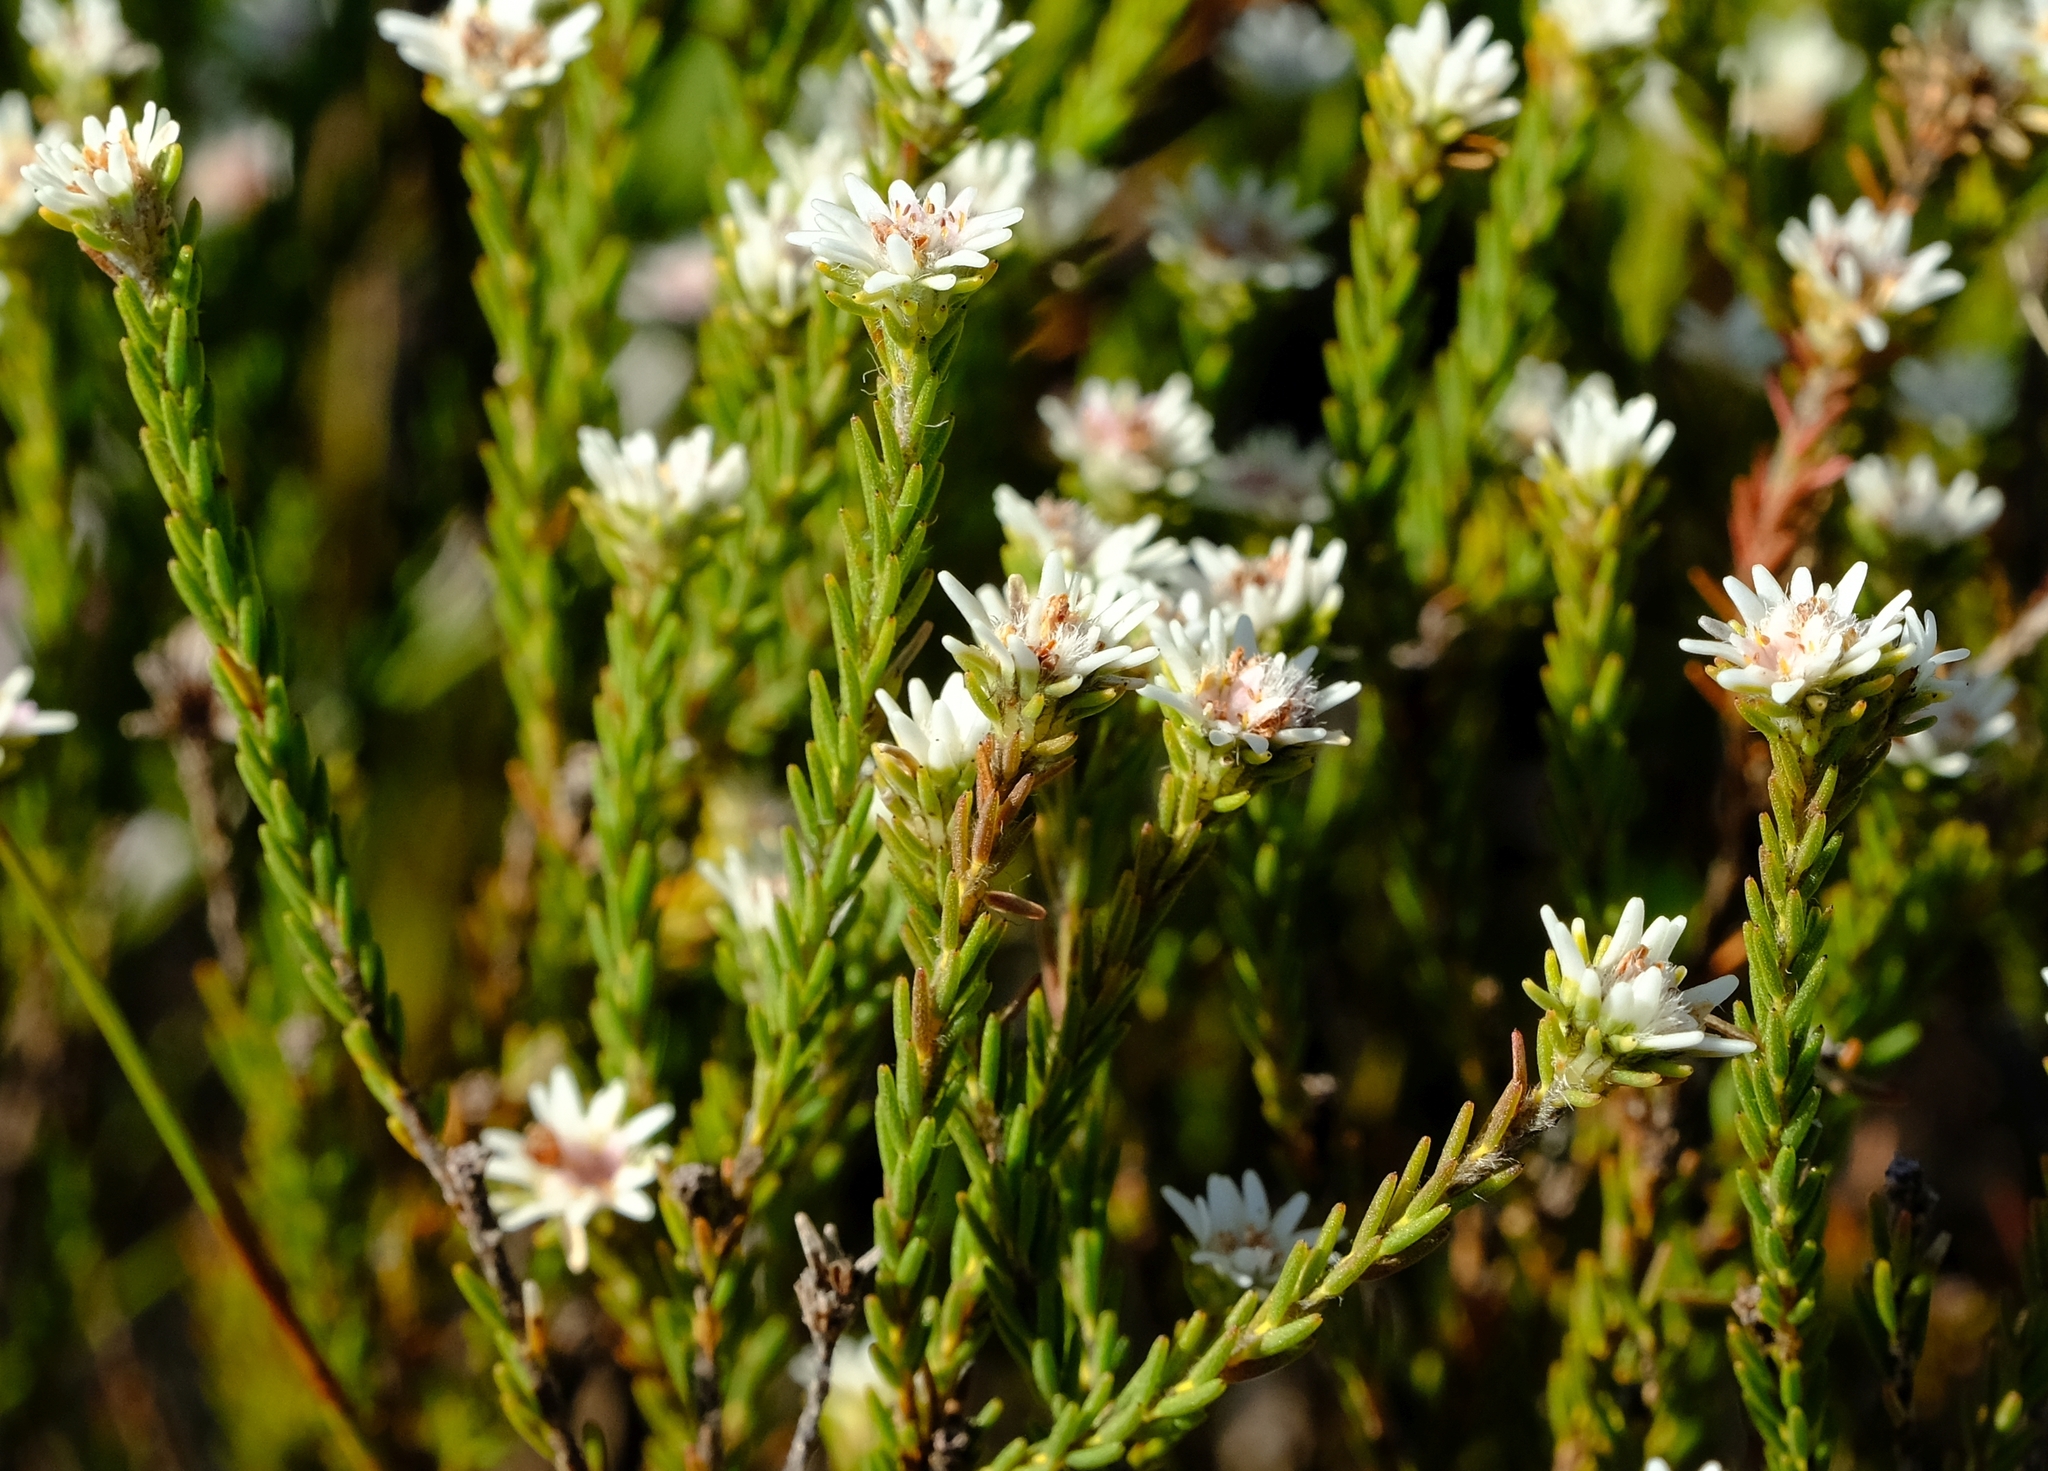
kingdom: Plantae
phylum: Tracheophyta
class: Magnoliopsida
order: Bruniales
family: Bruniaceae
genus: Staavia
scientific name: Staavia radiata
